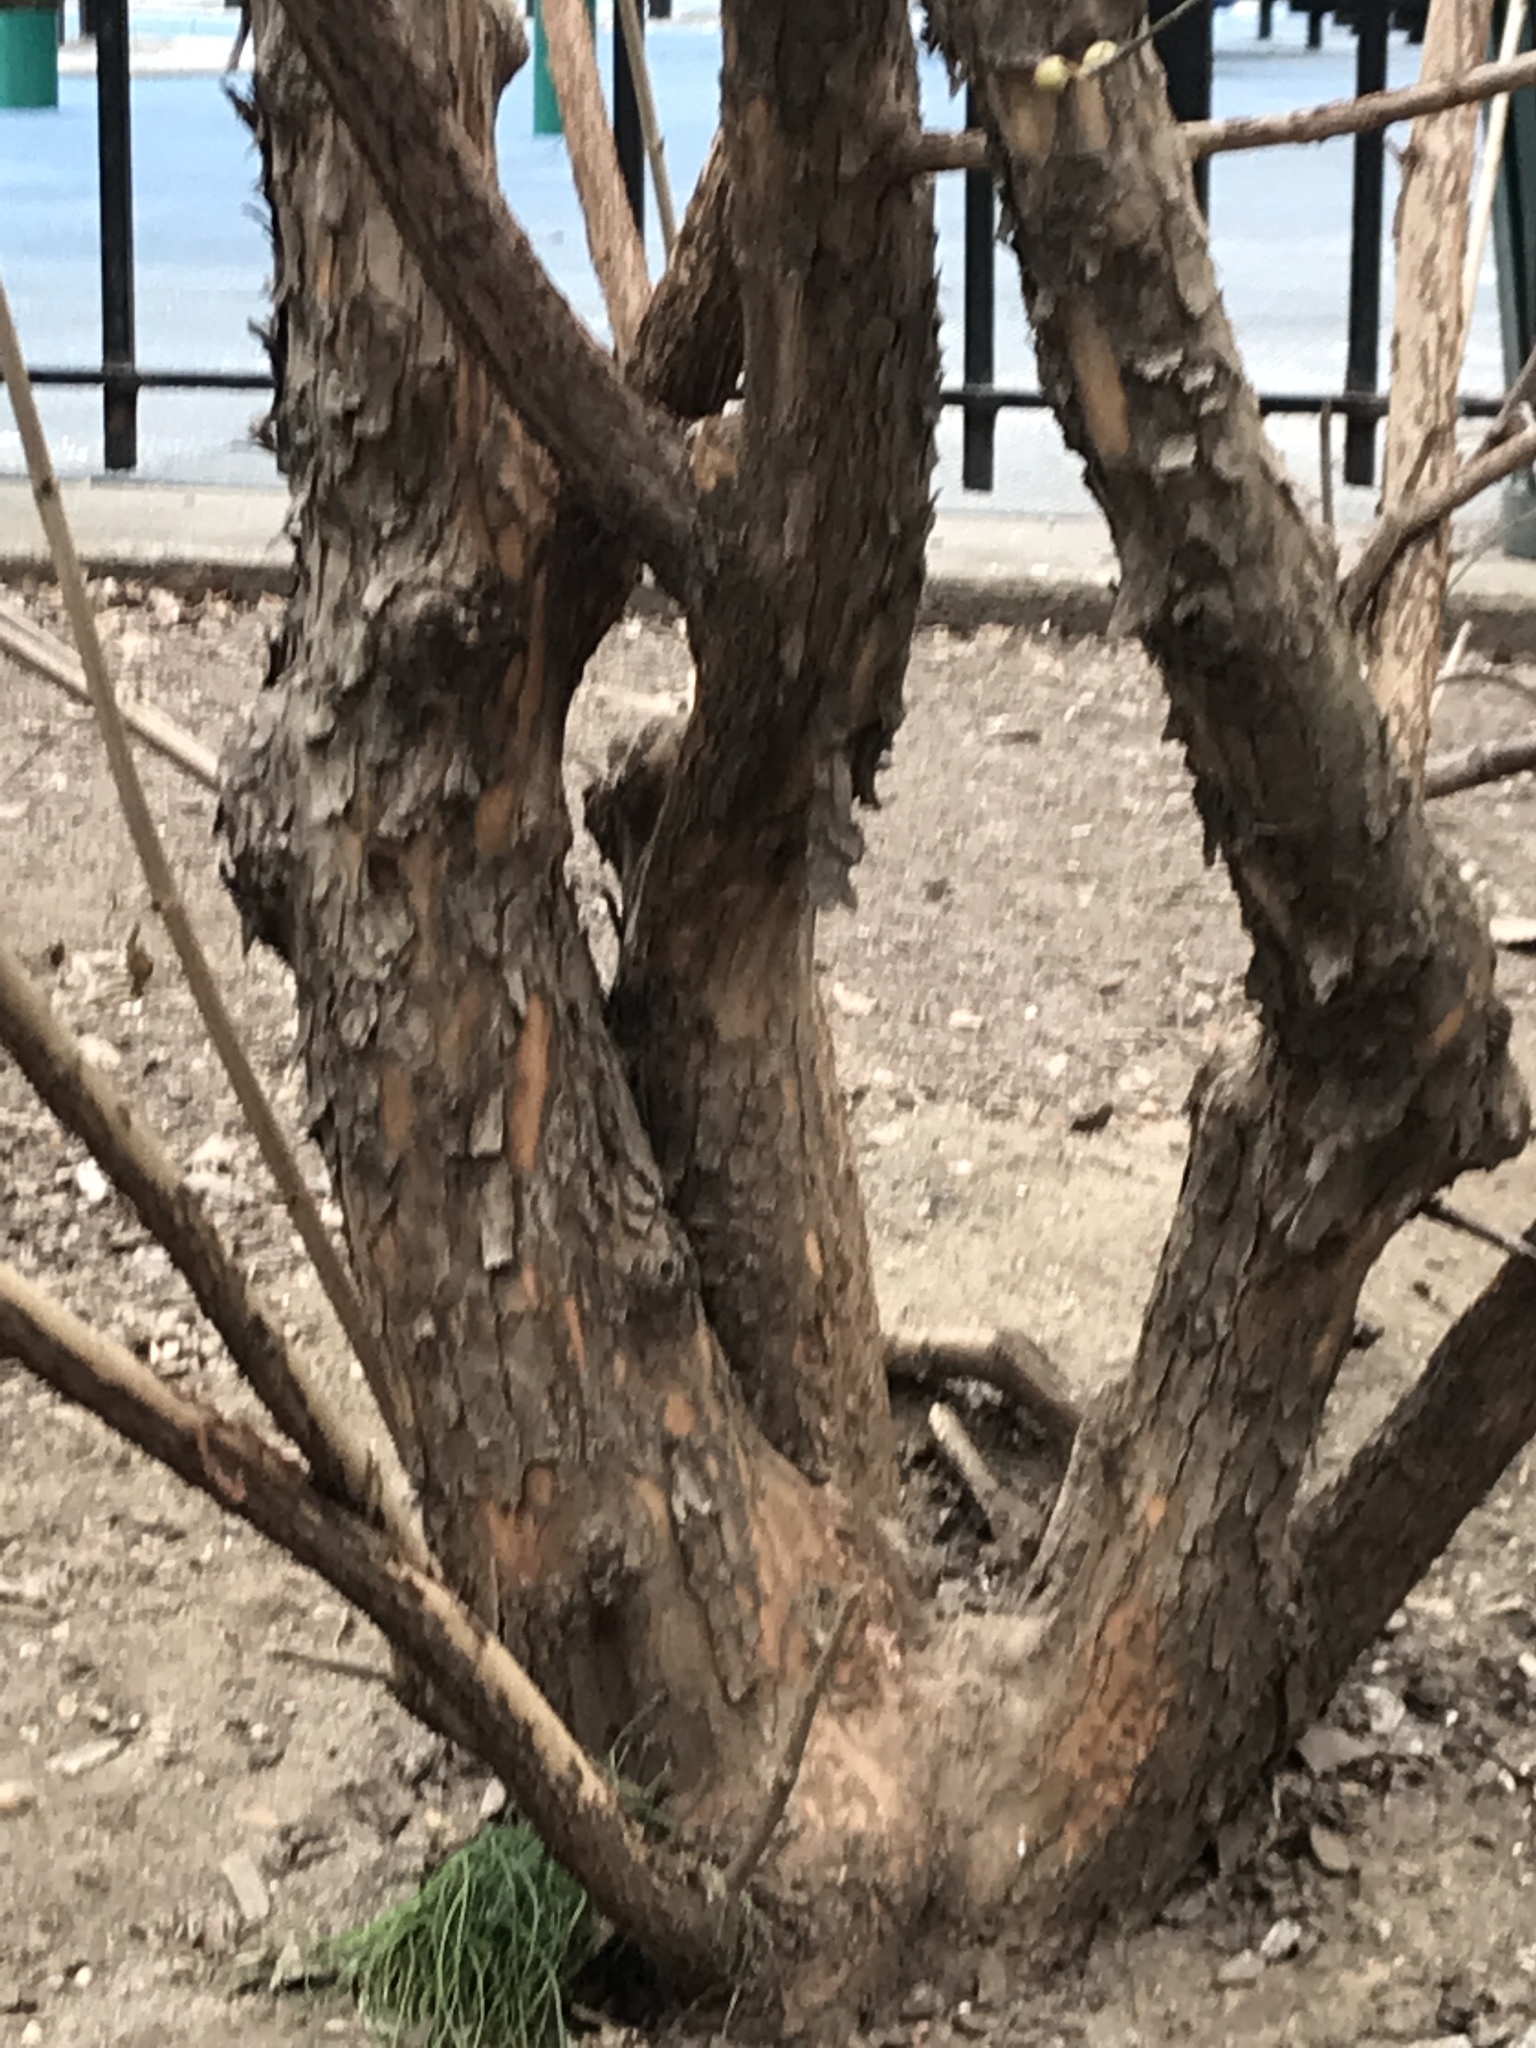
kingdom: Plantae
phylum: Tracheophyta
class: Magnoliopsida
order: Cornales
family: Cornaceae
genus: Cornus
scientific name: Cornus mas
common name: Cornelian-cherry
